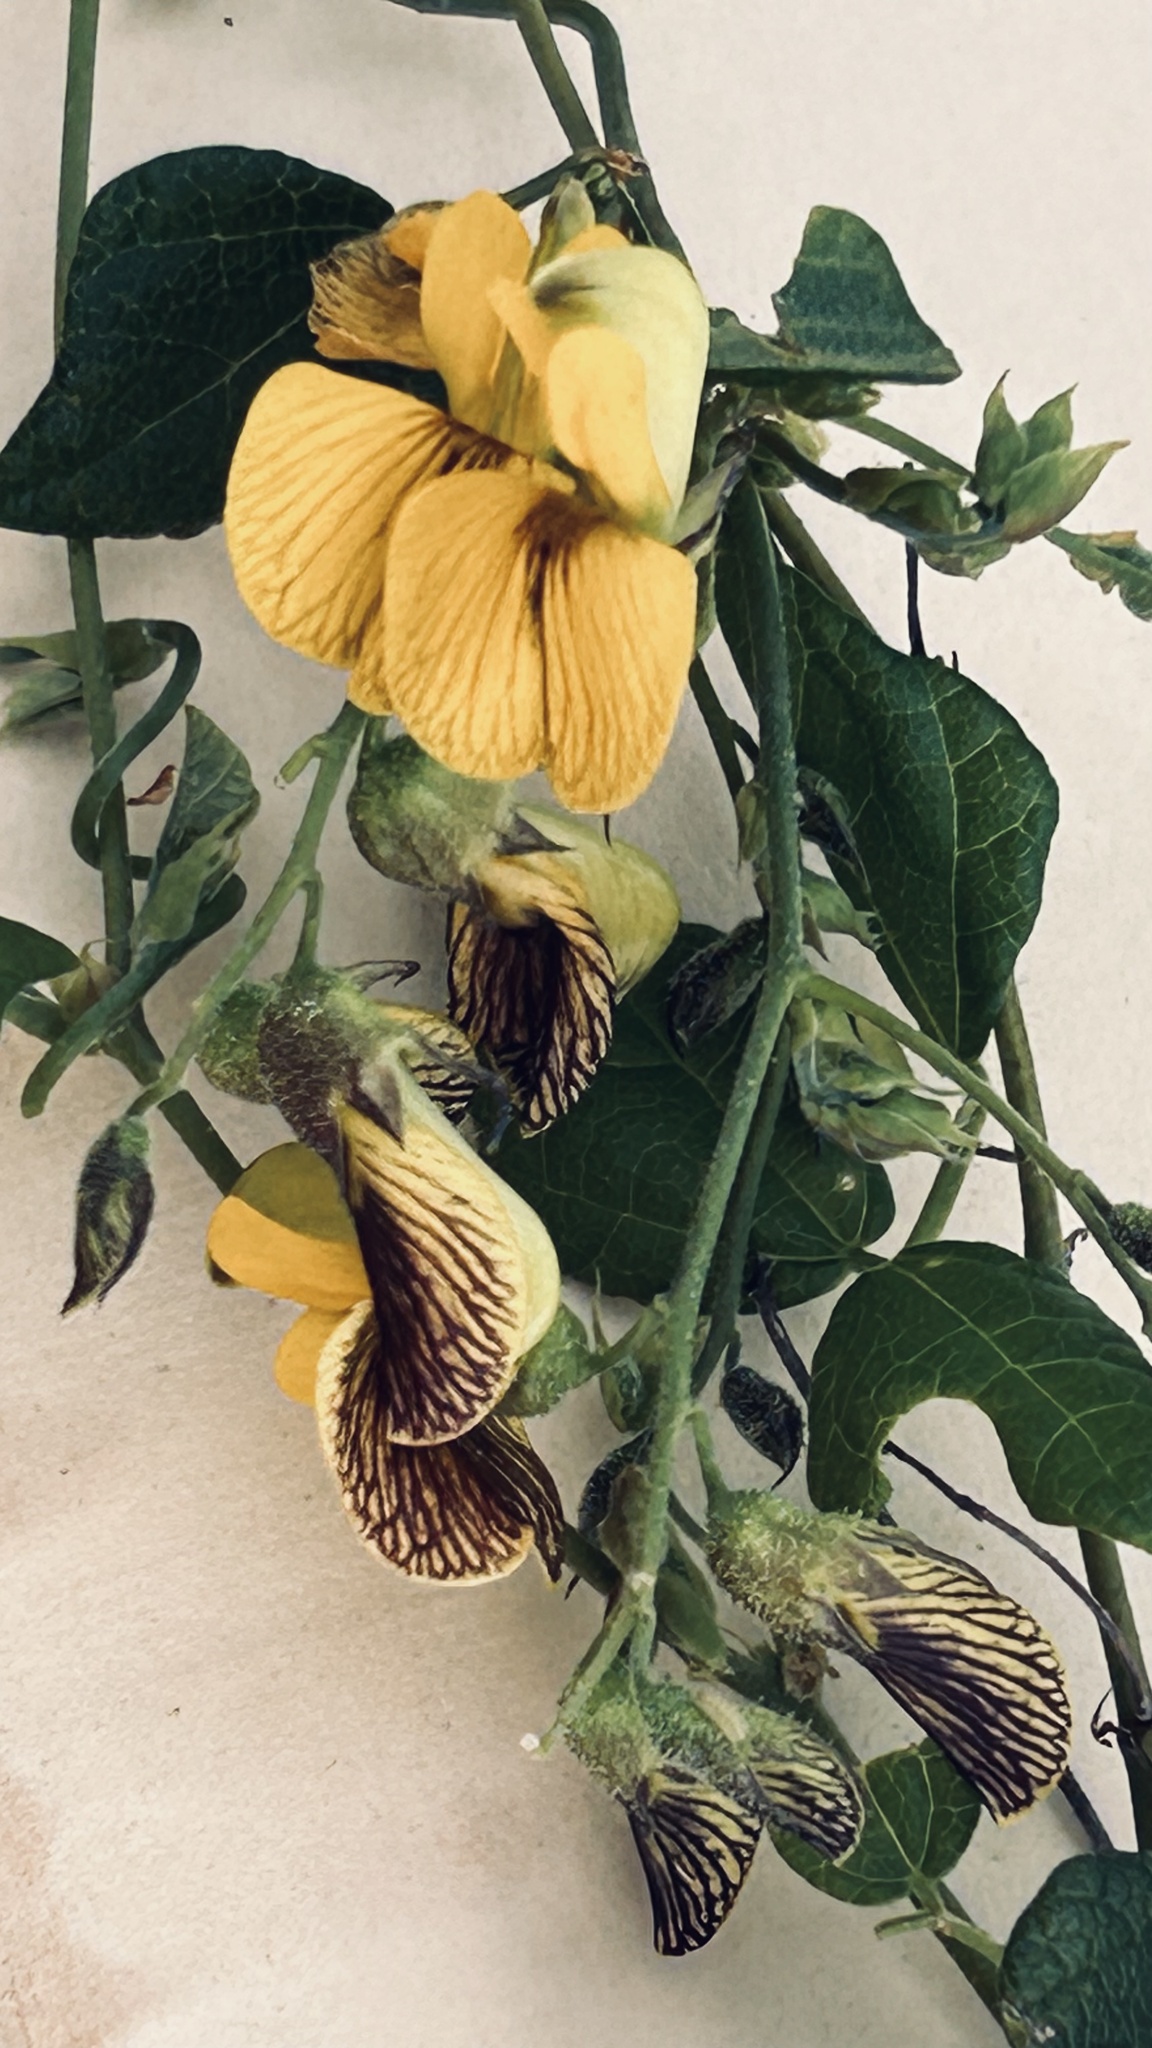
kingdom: Plantae
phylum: Tracheophyta
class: Magnoliopsida
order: Fabales
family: Fabaceae
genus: Rhynchosia
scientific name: Rhynchosia caribaea
